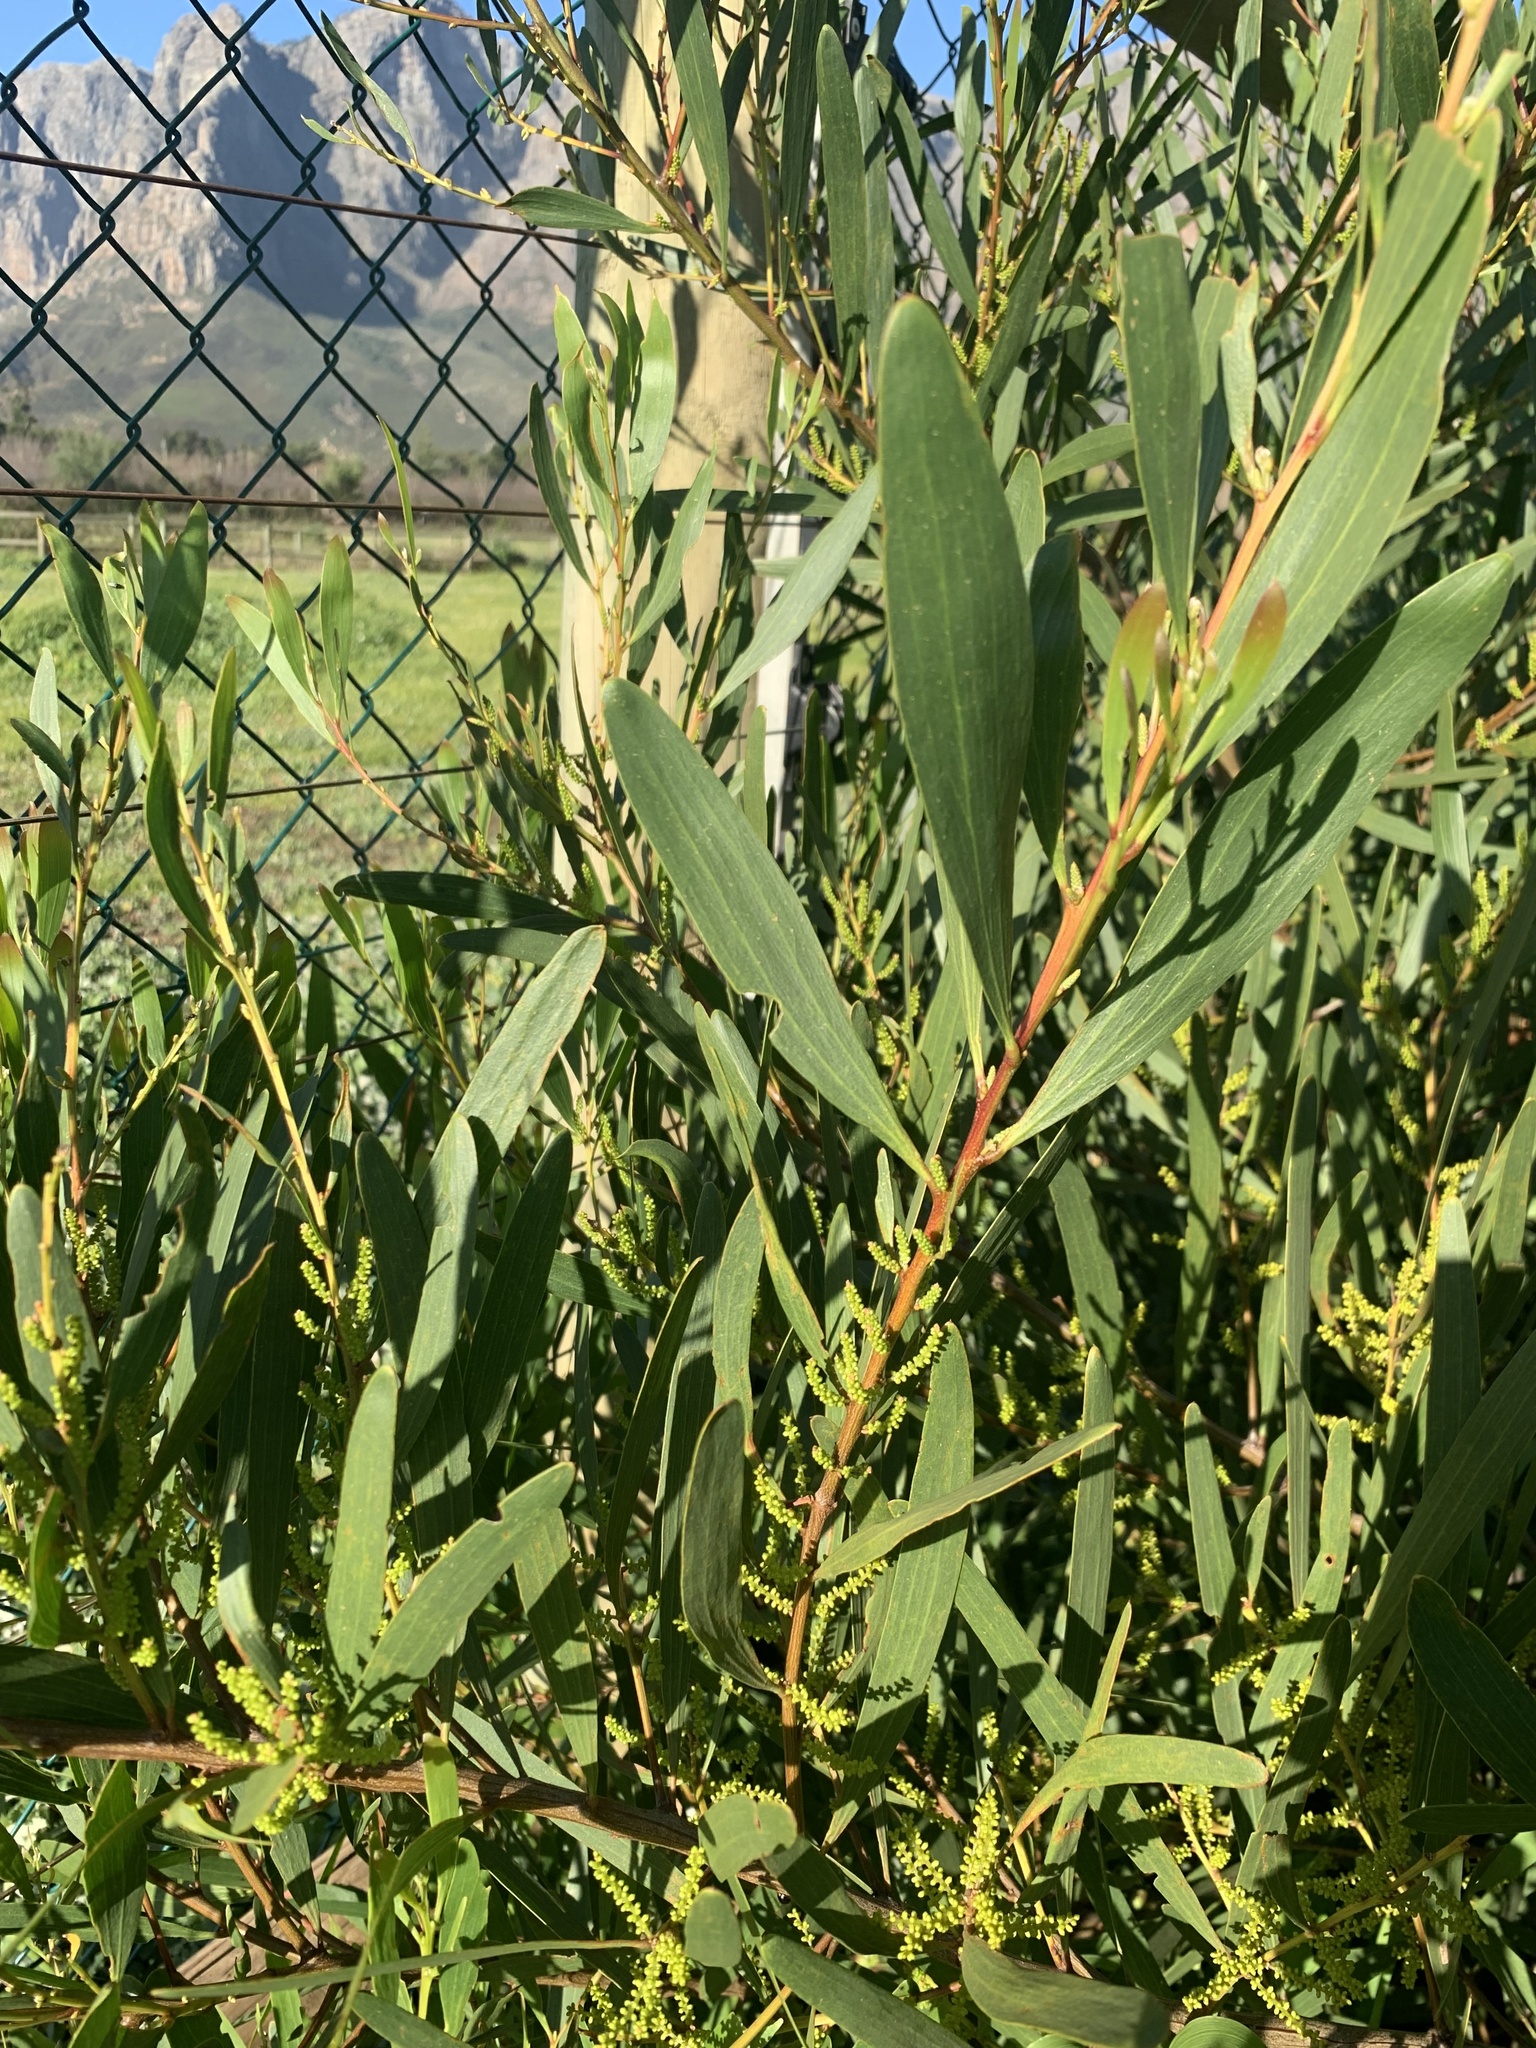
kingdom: Plantae
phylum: Tracheophyta
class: Magnoliopsida
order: Fabales
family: Fabaceae
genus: Acacia
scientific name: Acacia longifolia
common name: Sydney golden wattle
